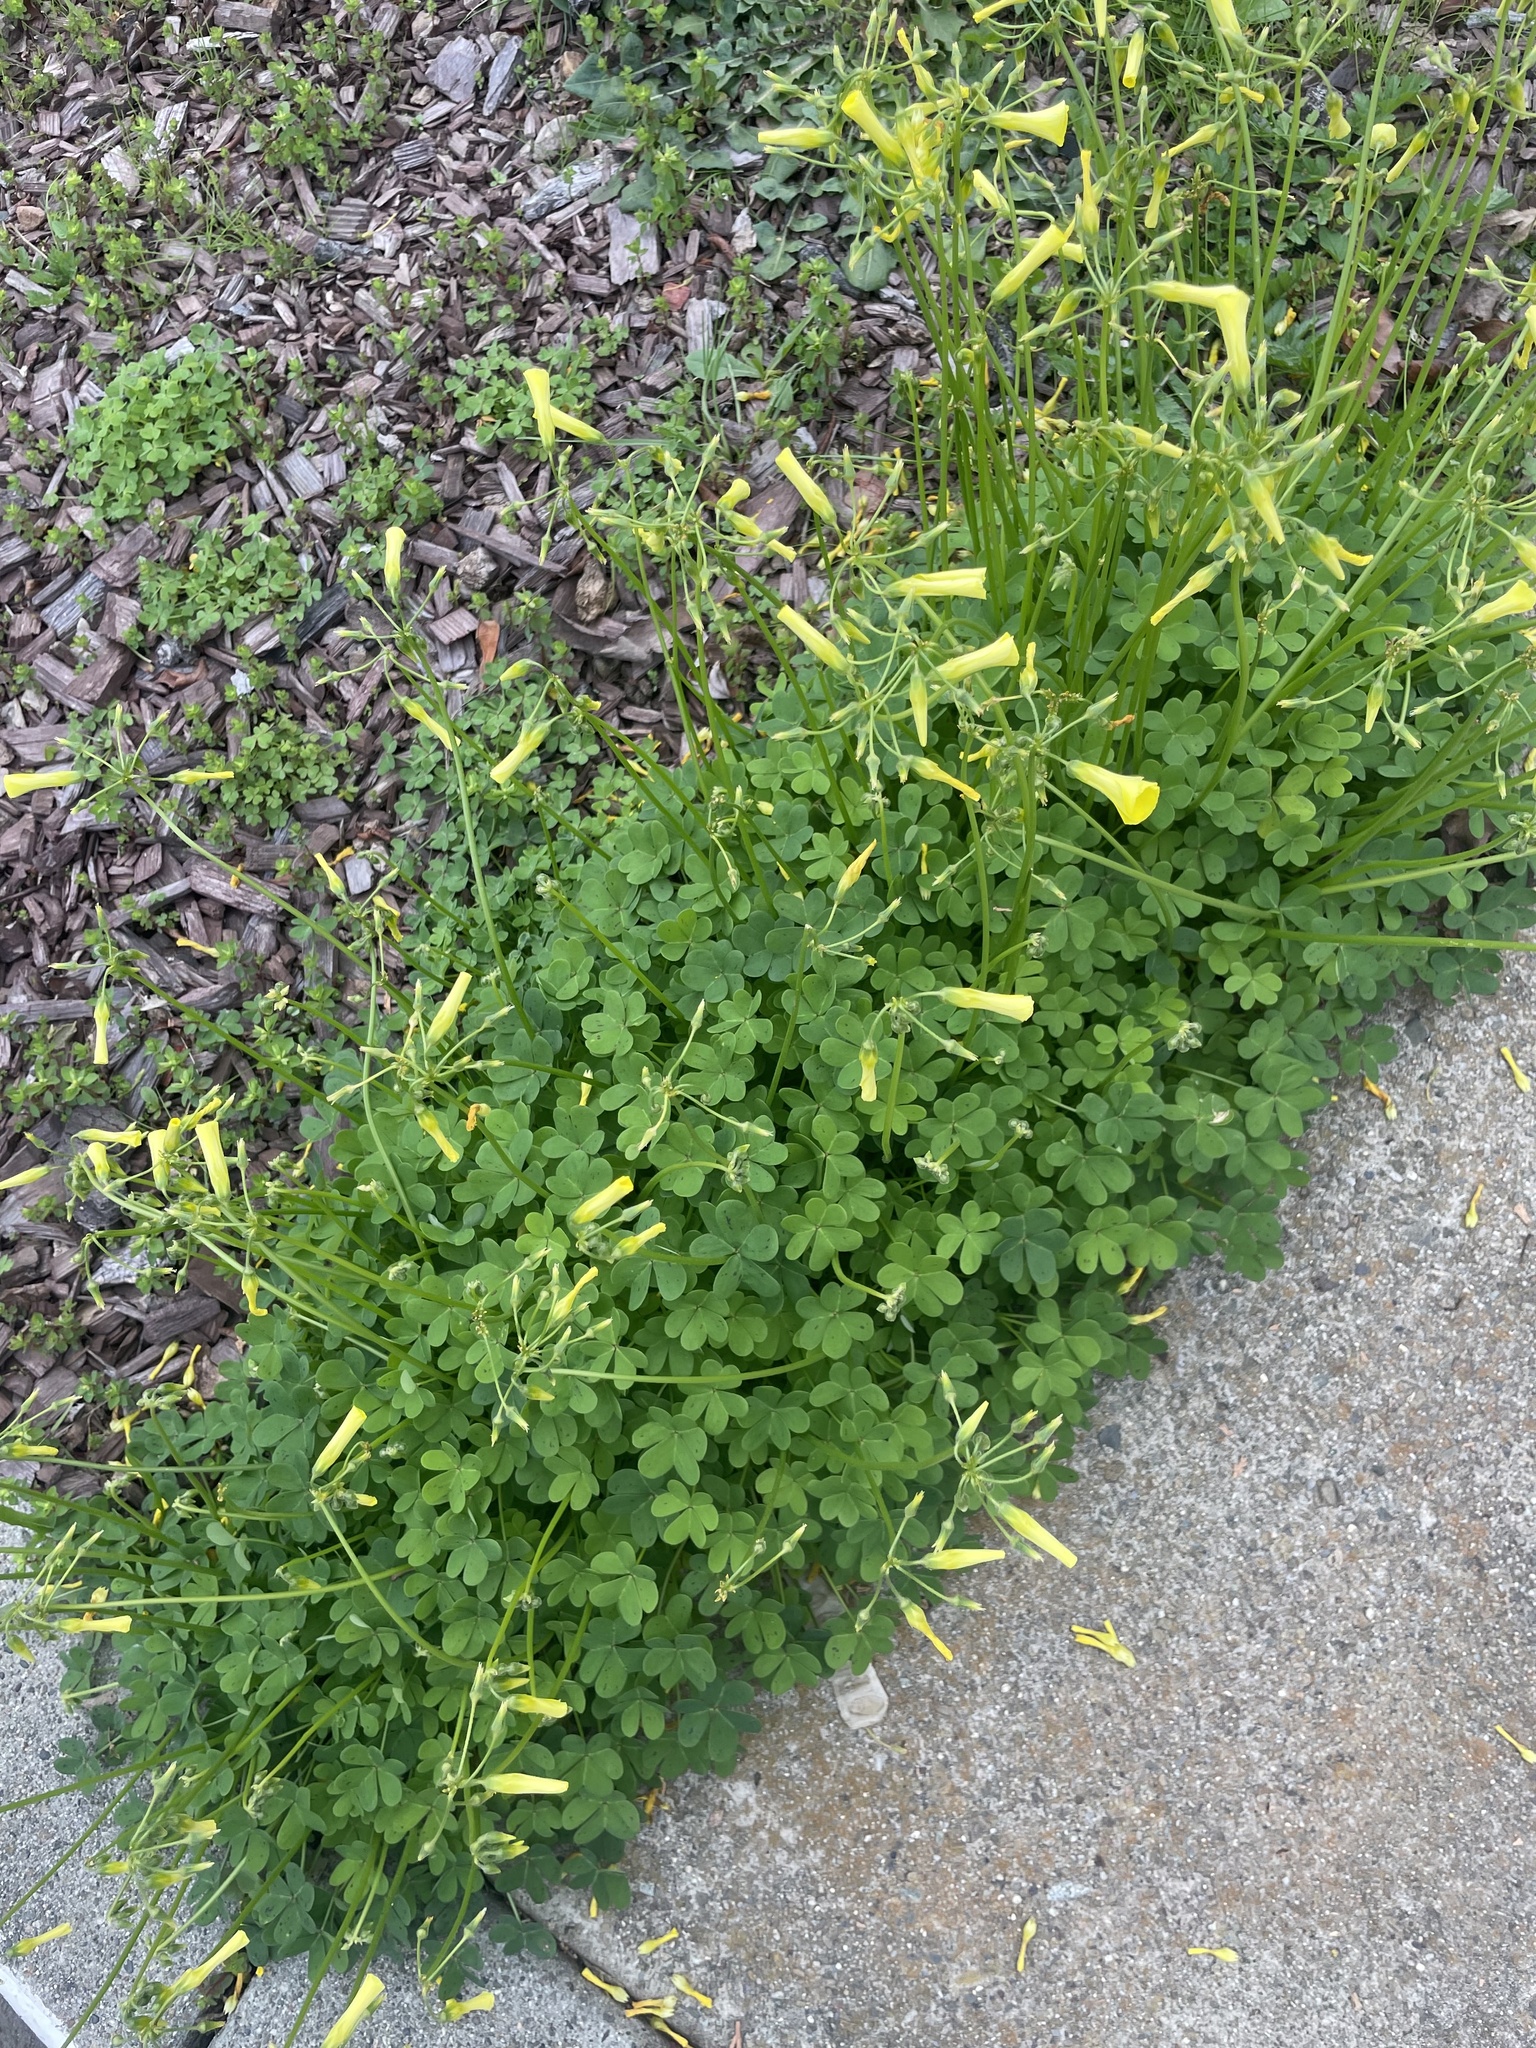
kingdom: Plantae
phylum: Tracheophyta
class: Magnoliopsida
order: Oxalidales
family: Oxalidaceae
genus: Oxalis
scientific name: Oxalis pes-caprae
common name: Bermuda-buttercup
